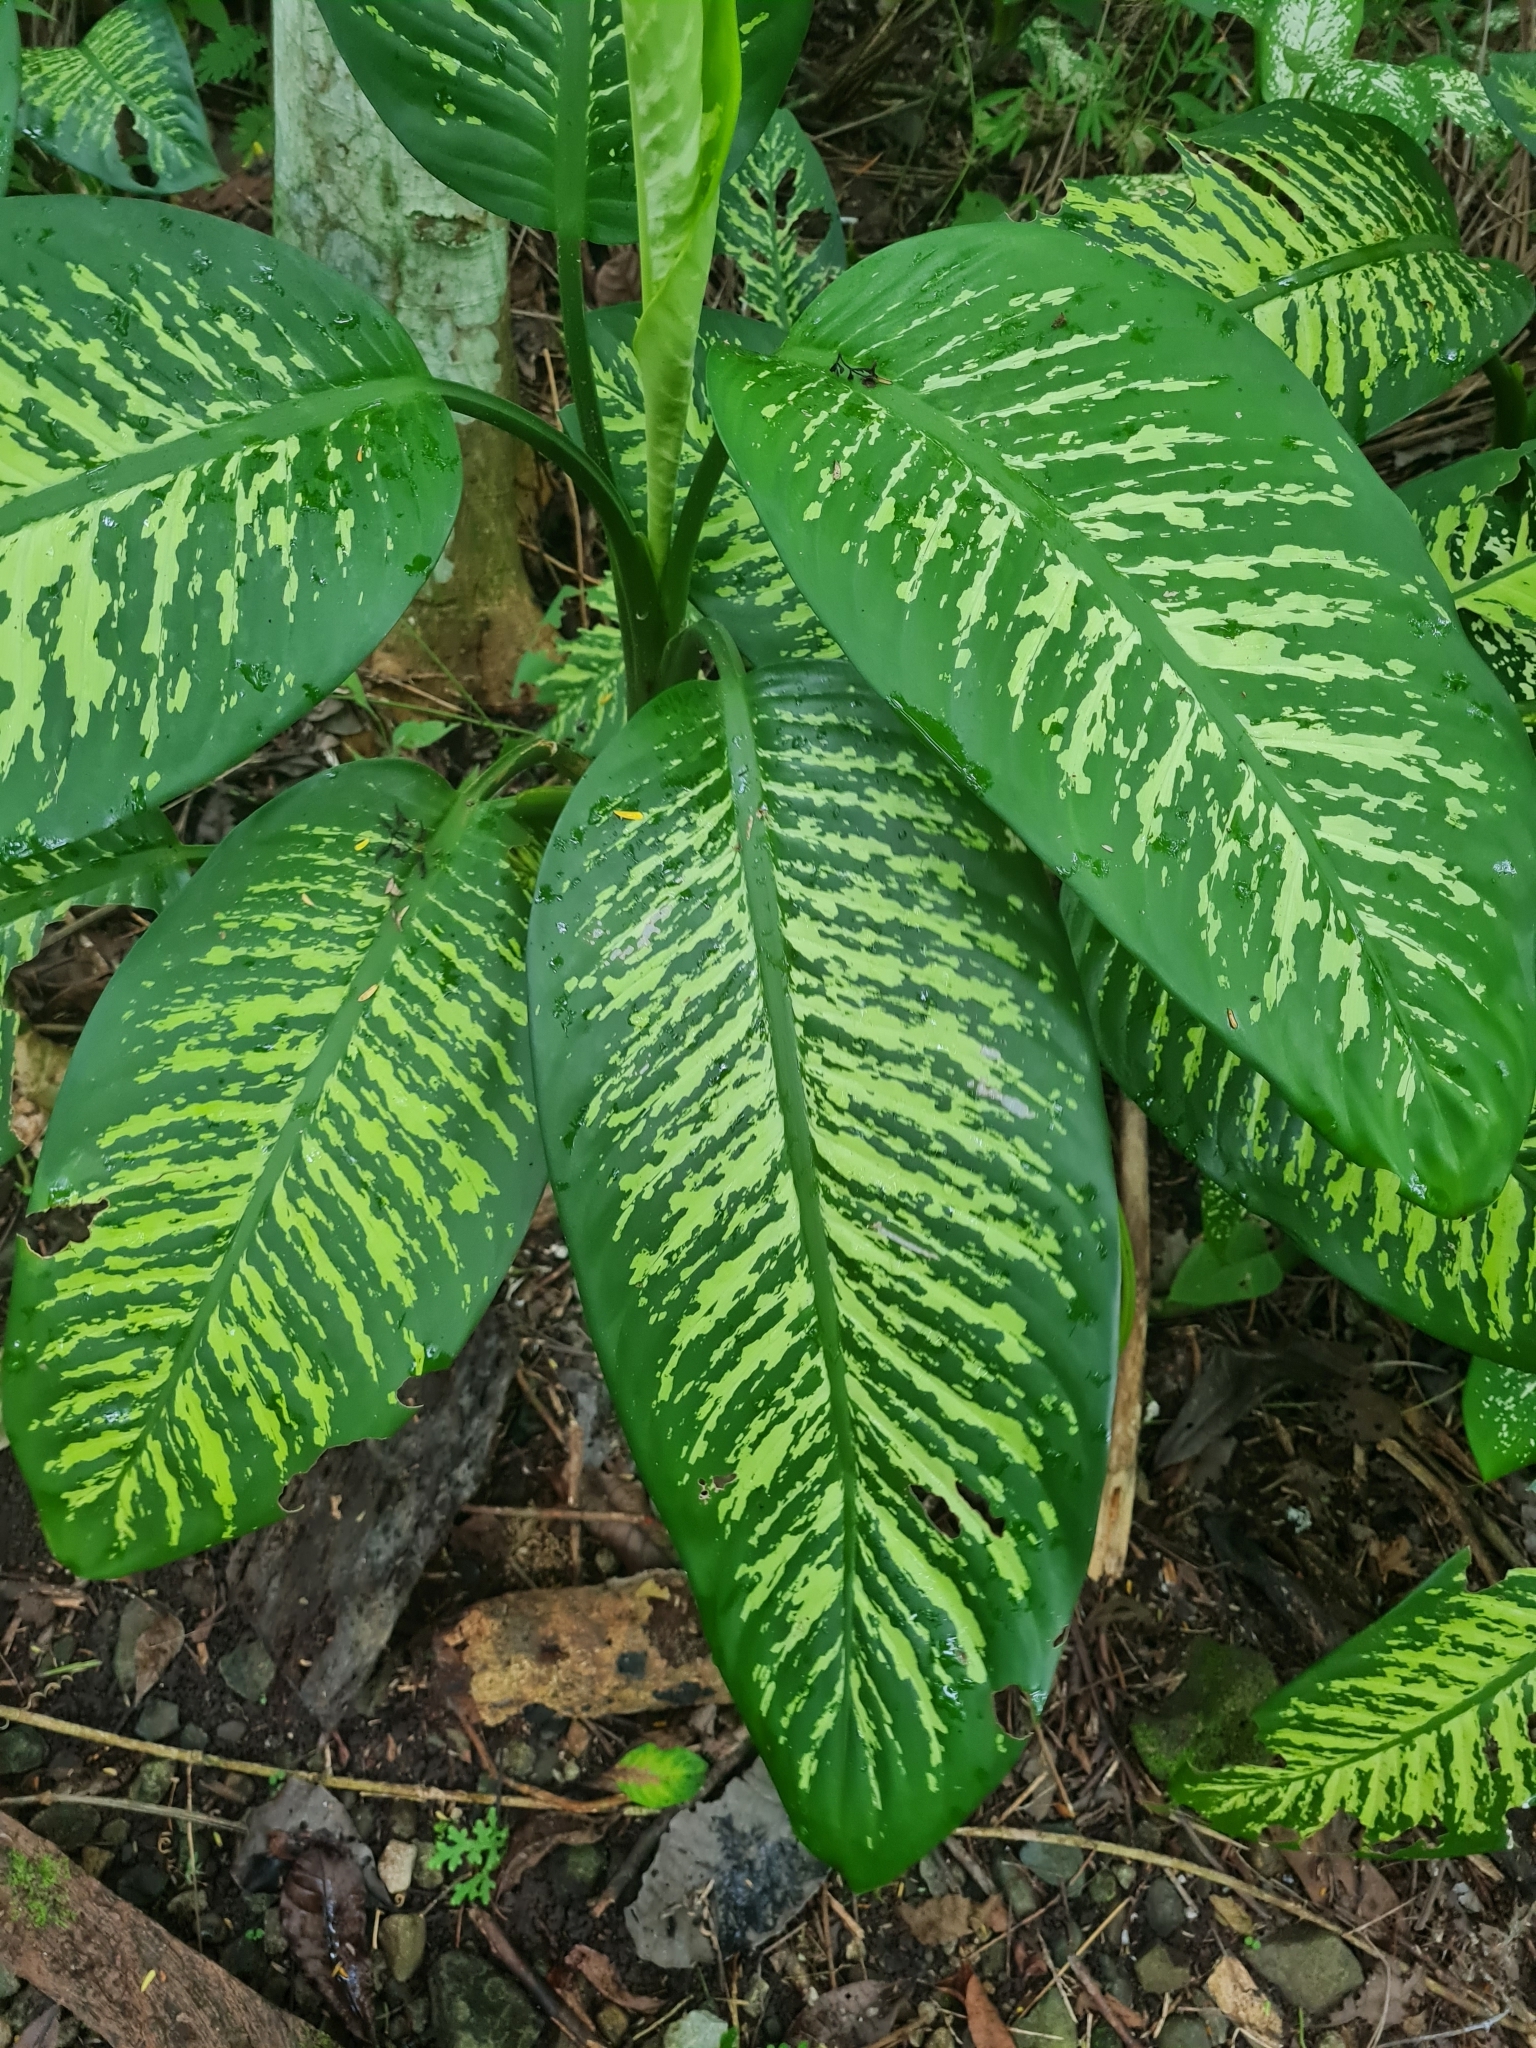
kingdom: Plantae
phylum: Tracheophyta
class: Liliopsida
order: Alismatales
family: Araceae
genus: Dieffenbachia
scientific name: Dieffenbachia seguine
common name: Dumbcane
